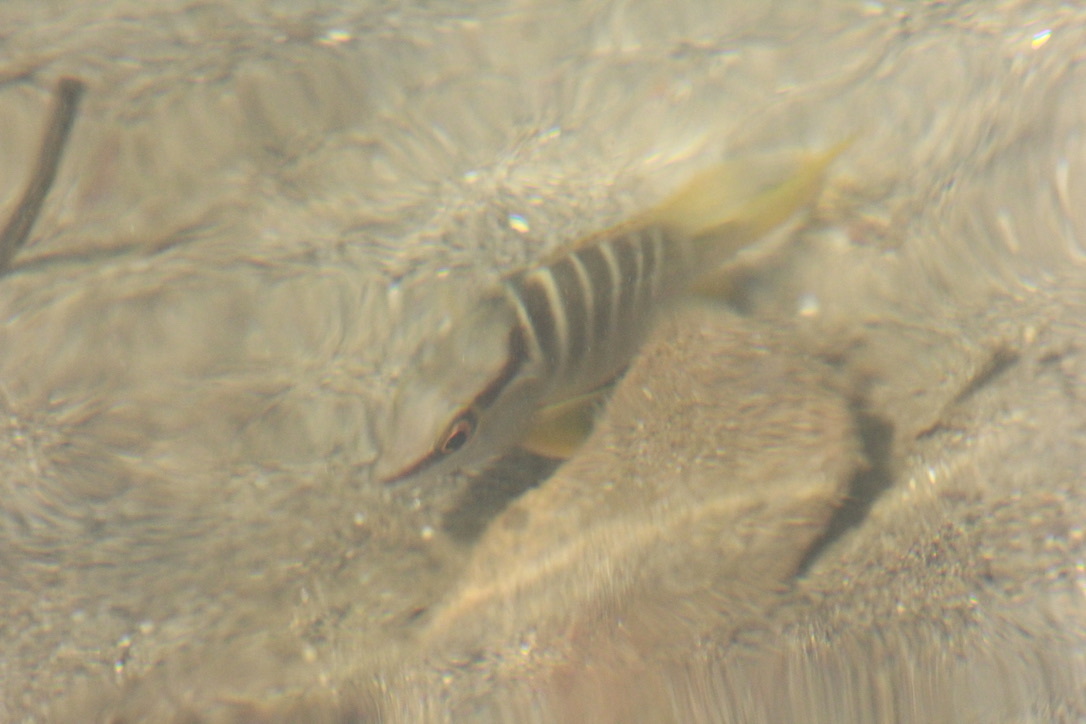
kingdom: Animalia
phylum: Chordata
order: Perciformes
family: Lutjanidae
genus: Lutjanus
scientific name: Lutjanus apodus
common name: Schoolmaster
